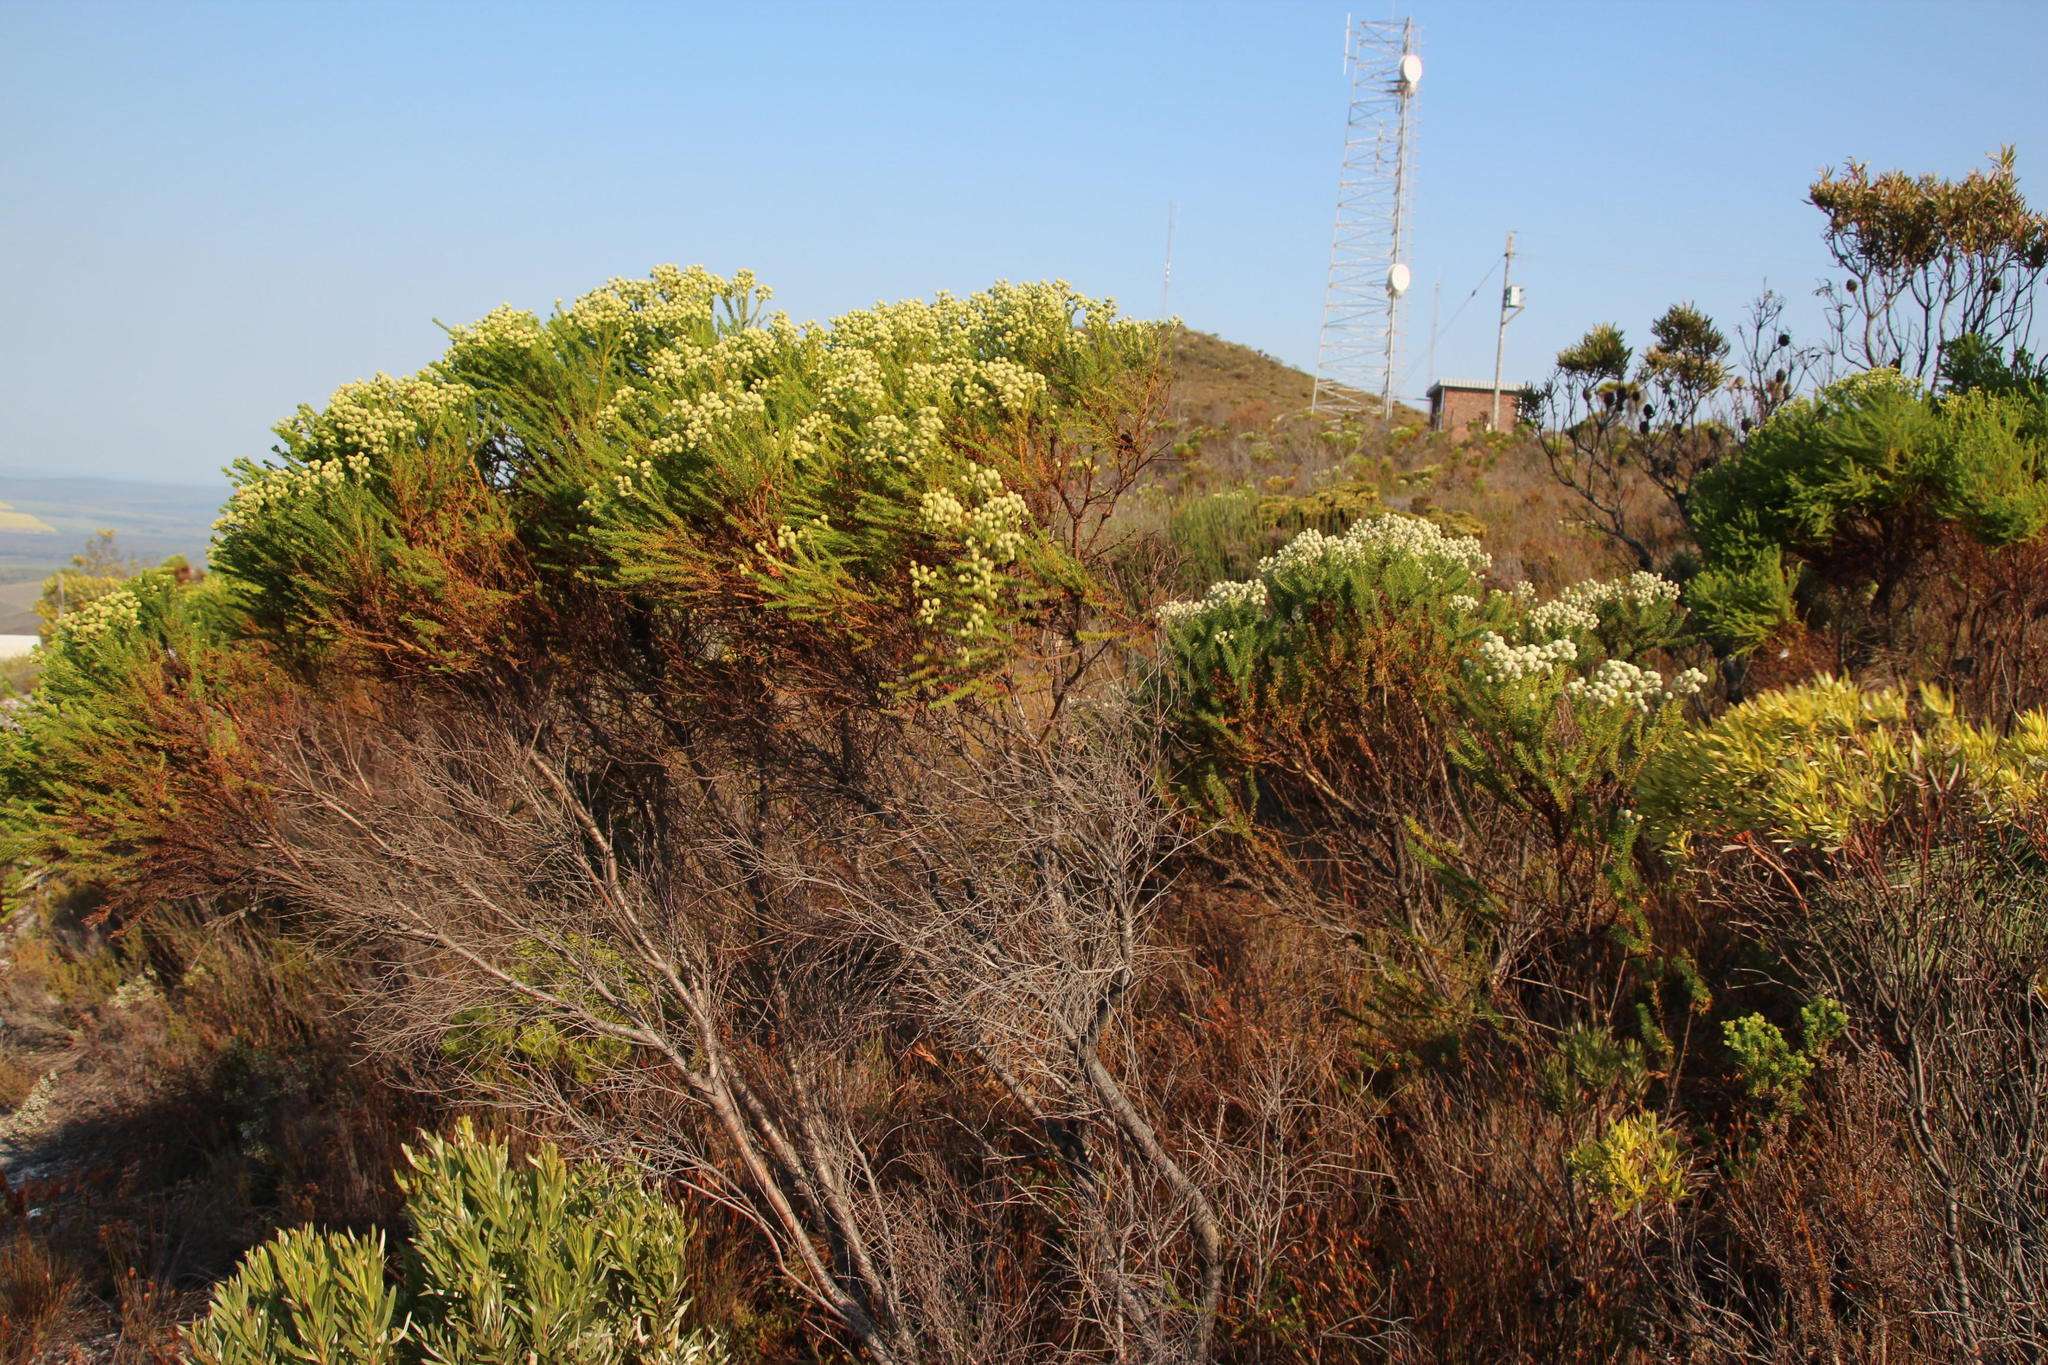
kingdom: Plantae
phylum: Tracheophyta
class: Magnoliopsida
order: Bruniales
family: Bruniaceae
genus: Berzelia
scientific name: Berzelia lanuginosa
